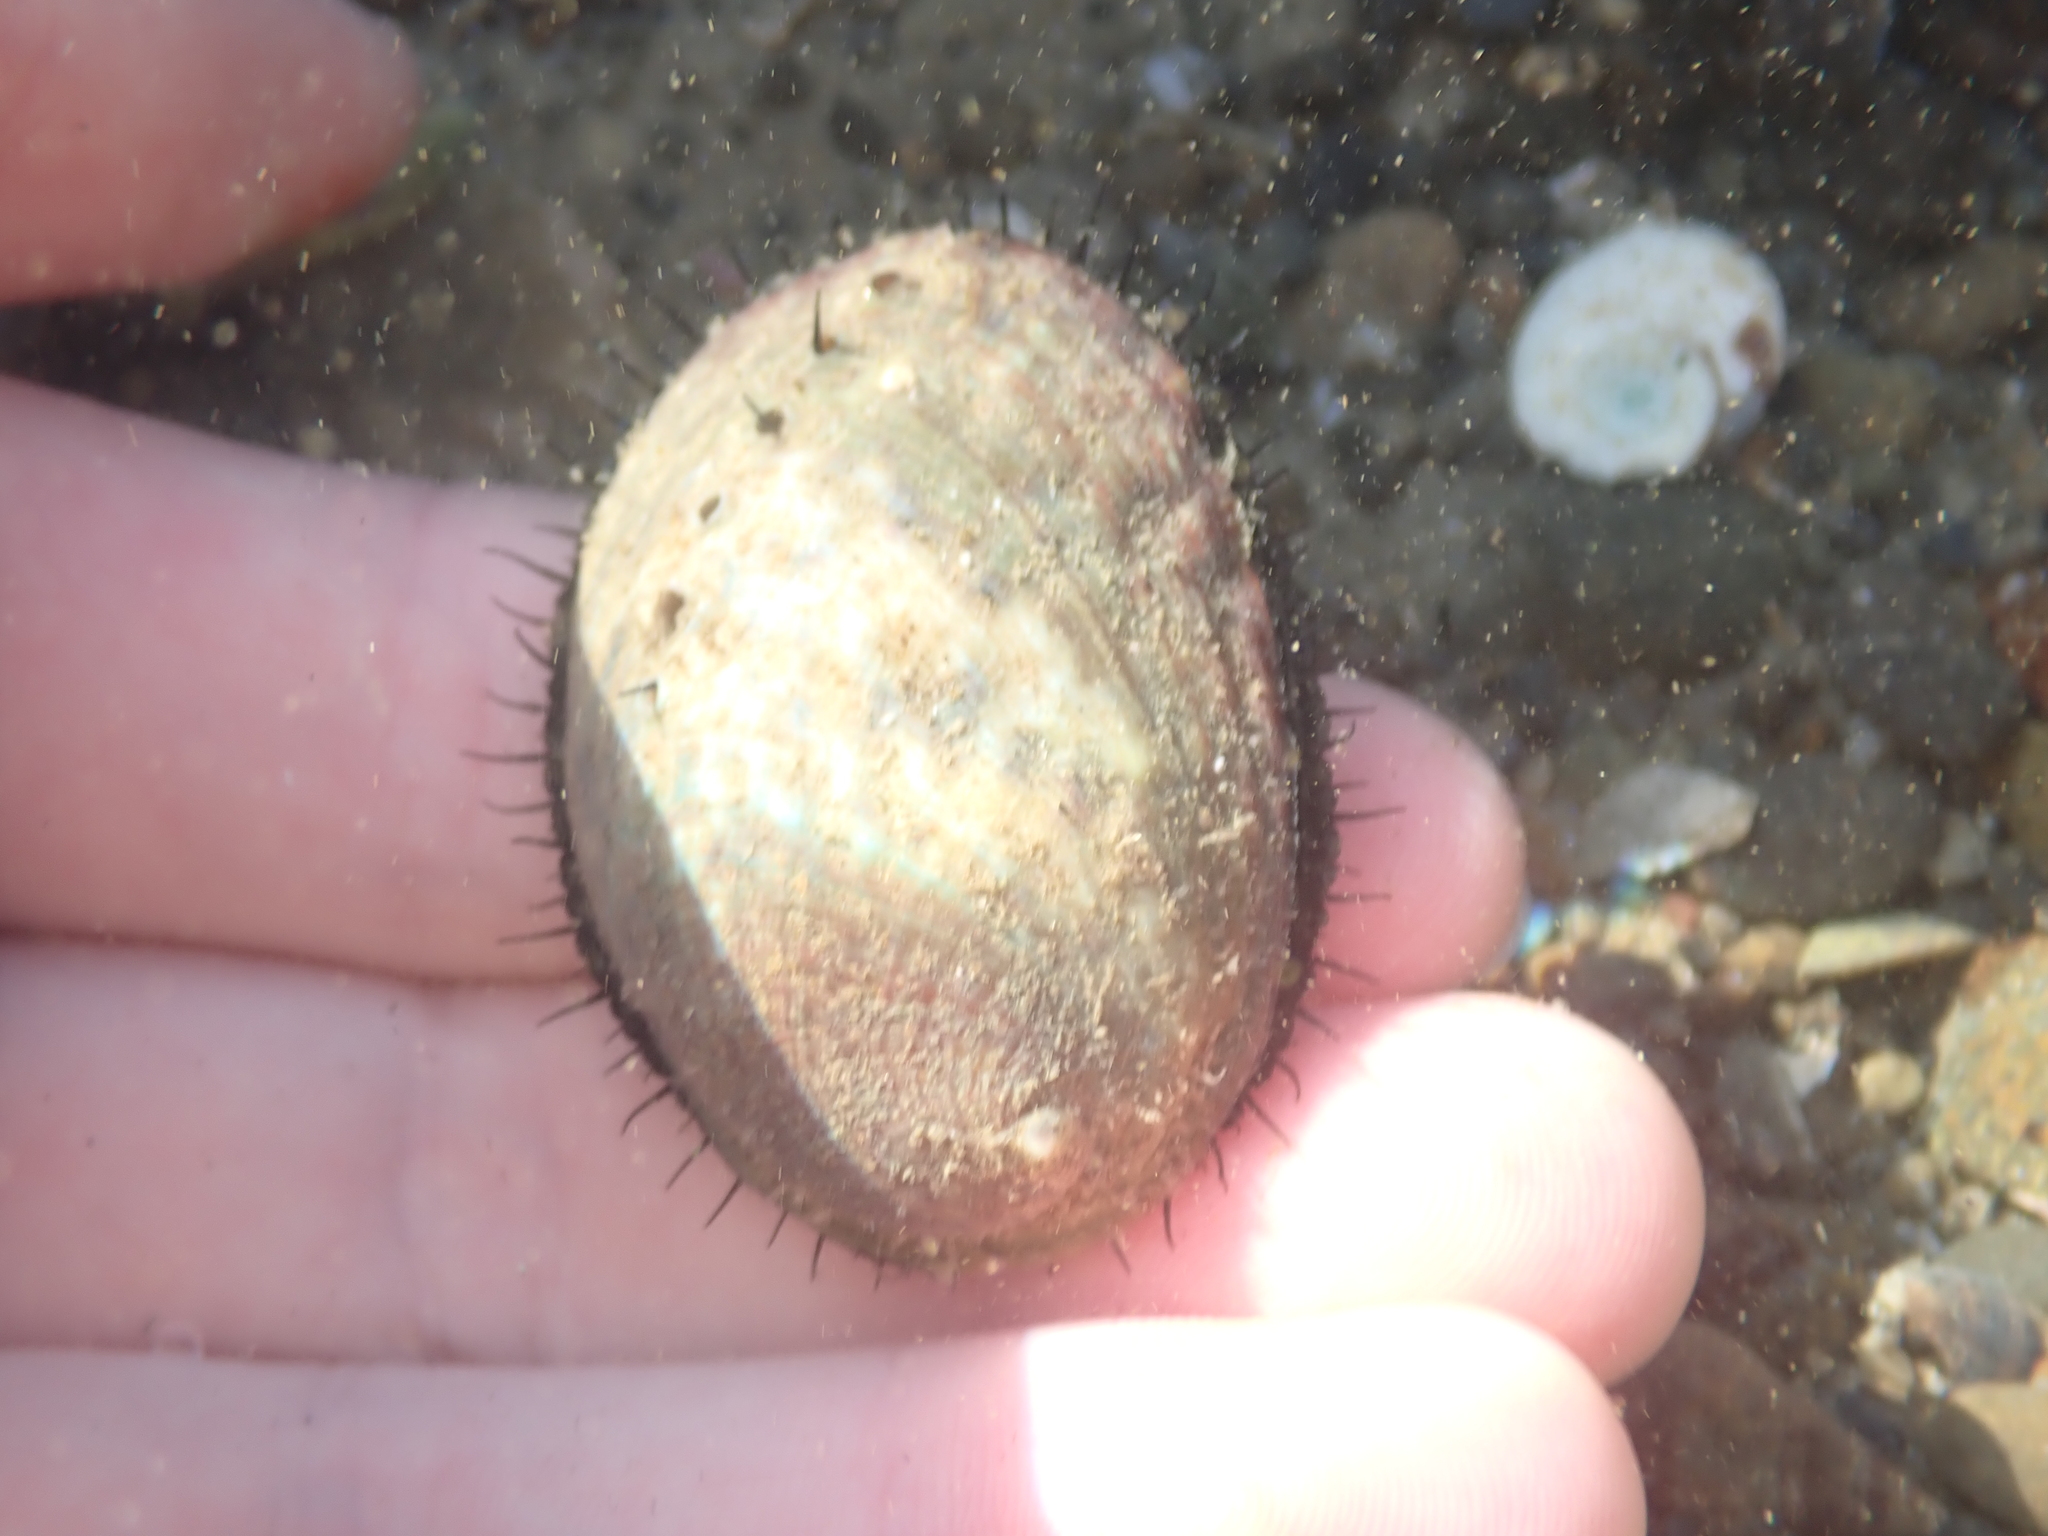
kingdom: Animalia
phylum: Mollusca
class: Gastropoda
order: Lepetellida
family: Haliotidae
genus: Haliotis
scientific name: Haliotis iris
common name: Abalone
